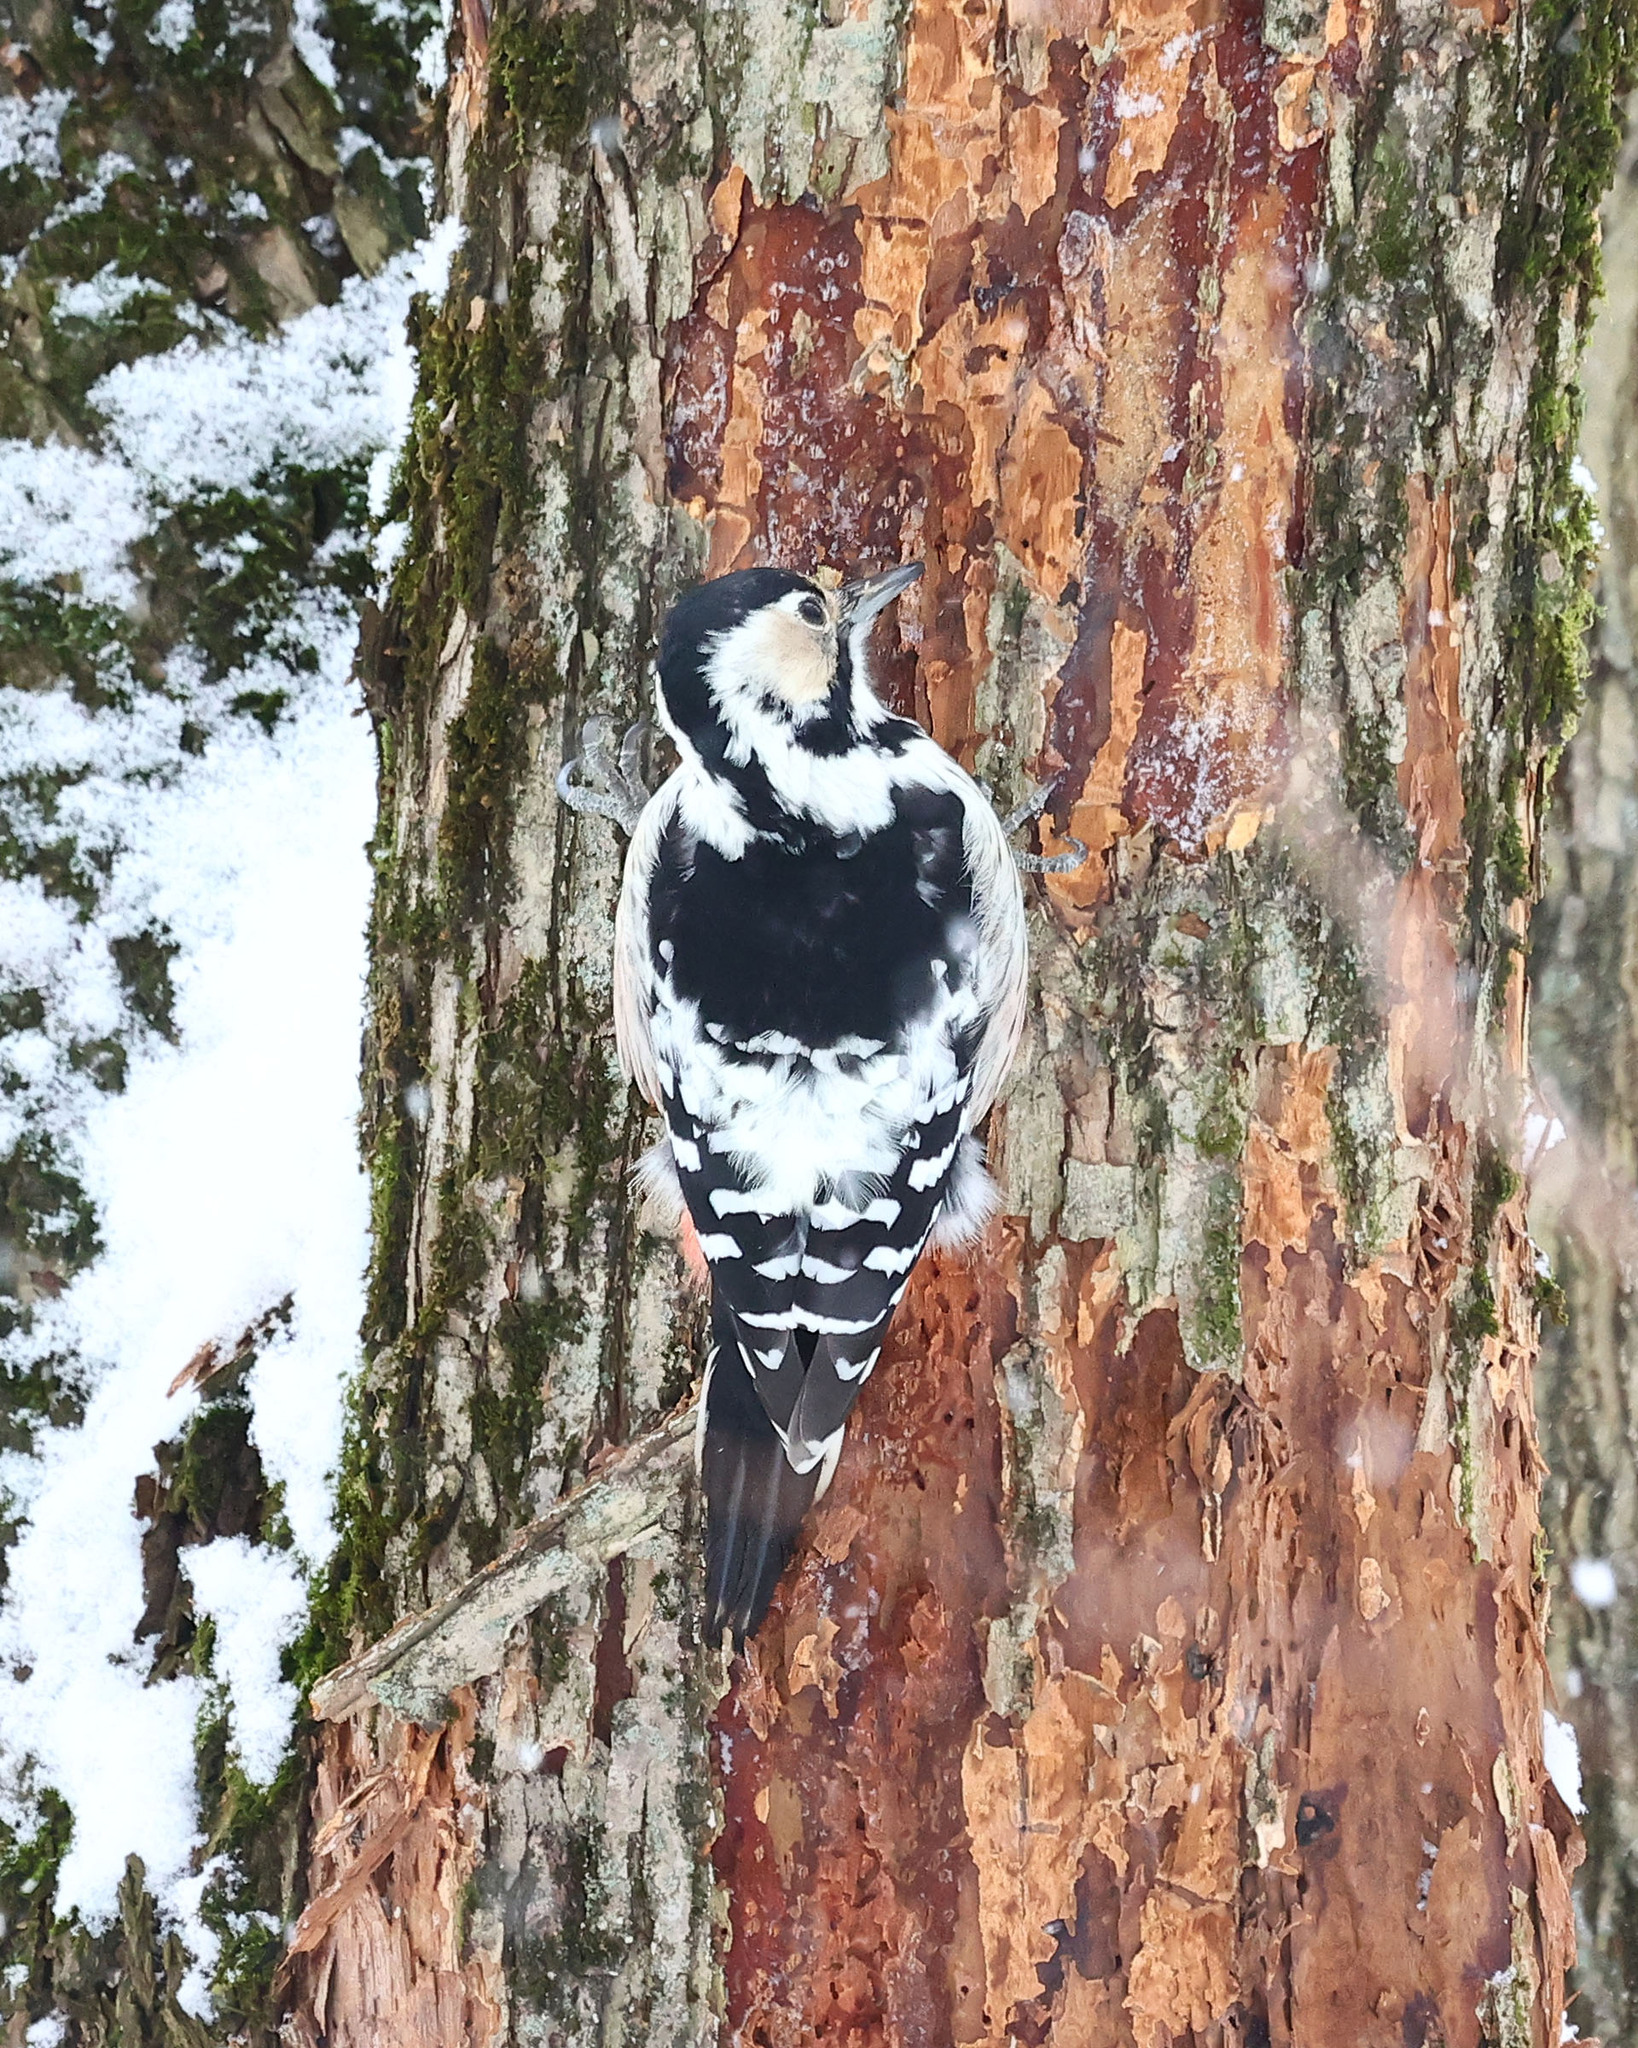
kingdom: Animalia
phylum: Chordata
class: Aves
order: Piciformes
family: Picidae
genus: Dendrocopos
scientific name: Dendrocopos leucotos
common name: White-backed woodpecker
